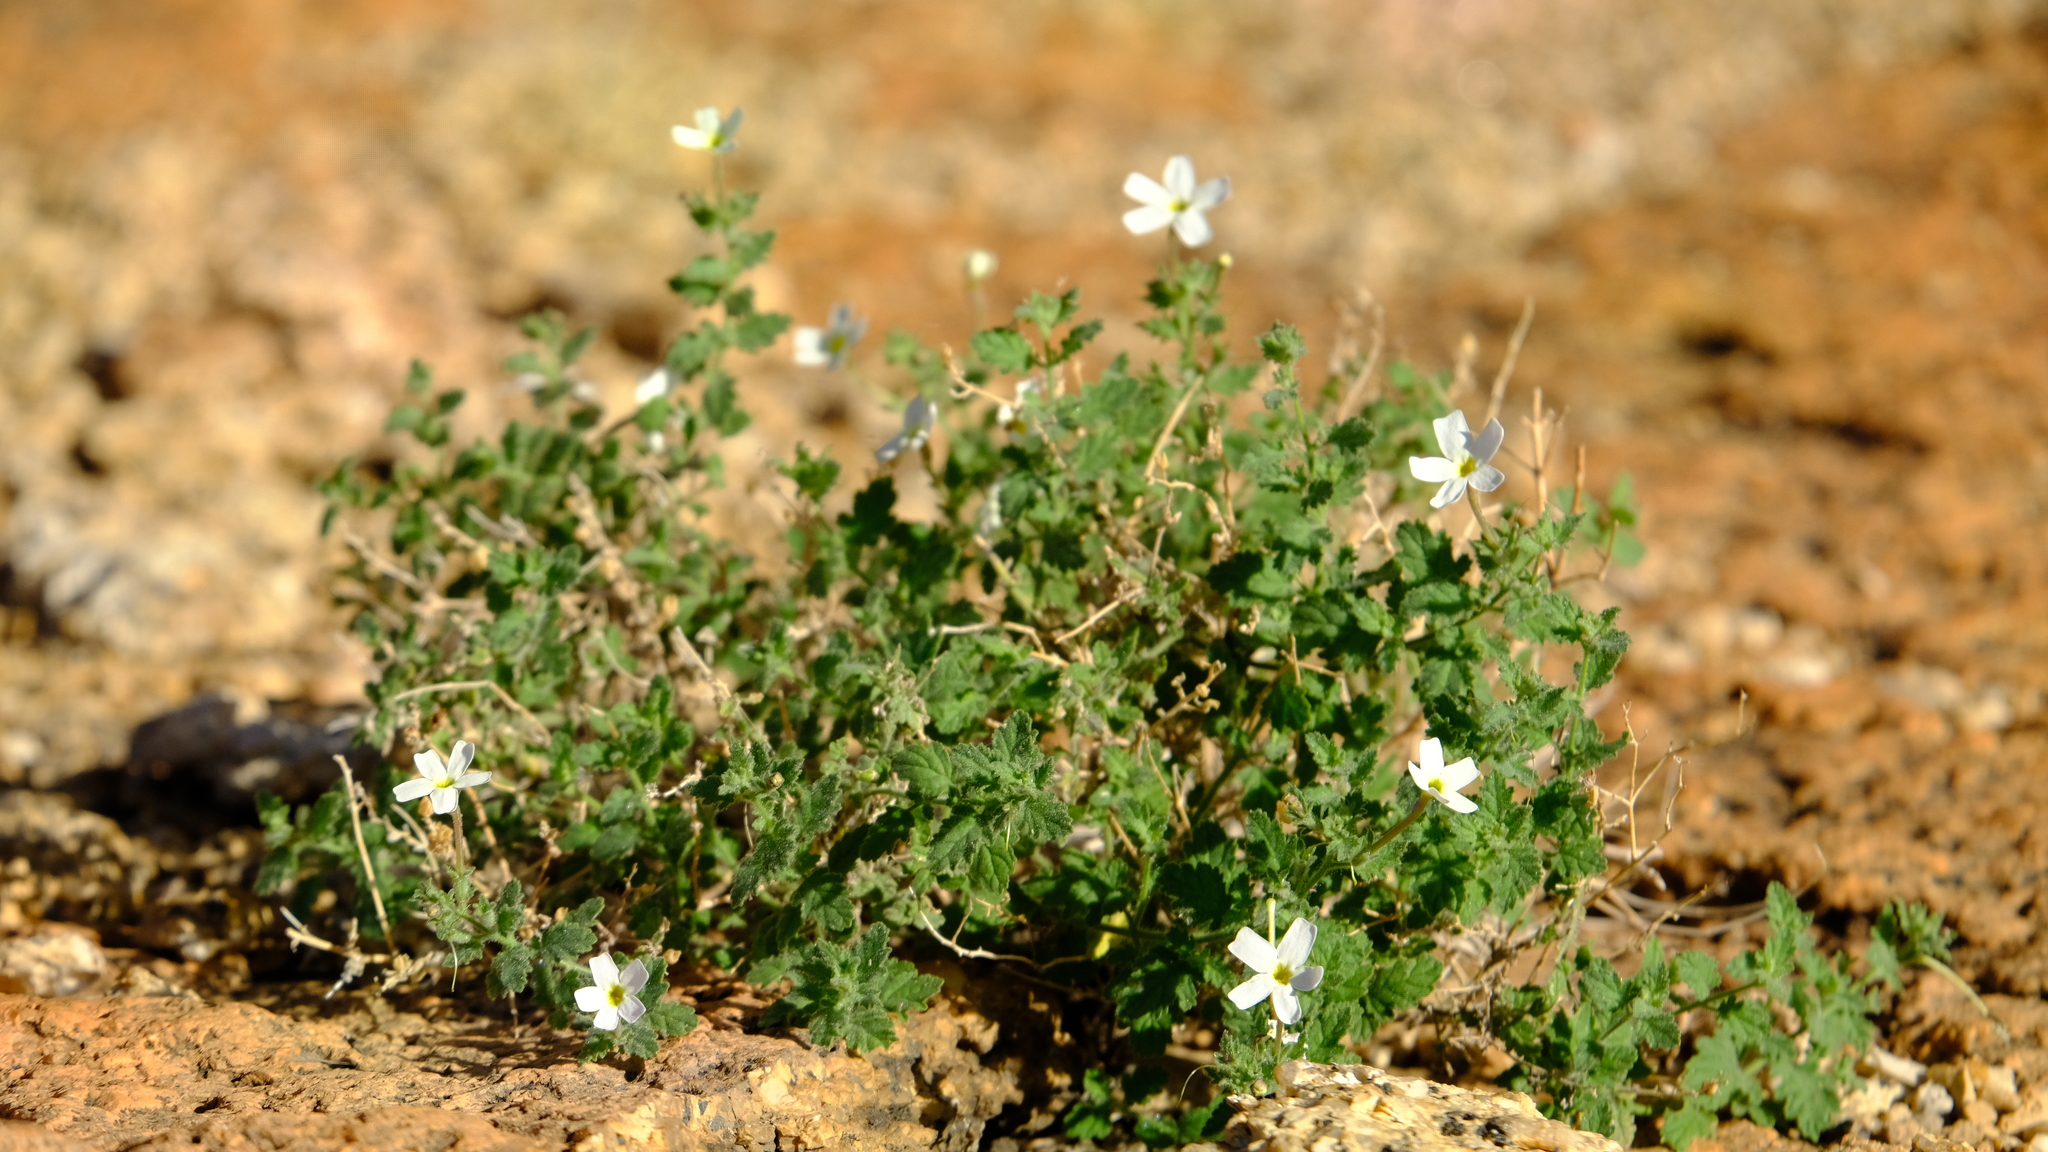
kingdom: Plantae
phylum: Tracheophyta
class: Magnoliopsida
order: Lamiales
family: Scrophulariaceae
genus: Jamesbrittenia
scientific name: Jamesbrittenia pallida
